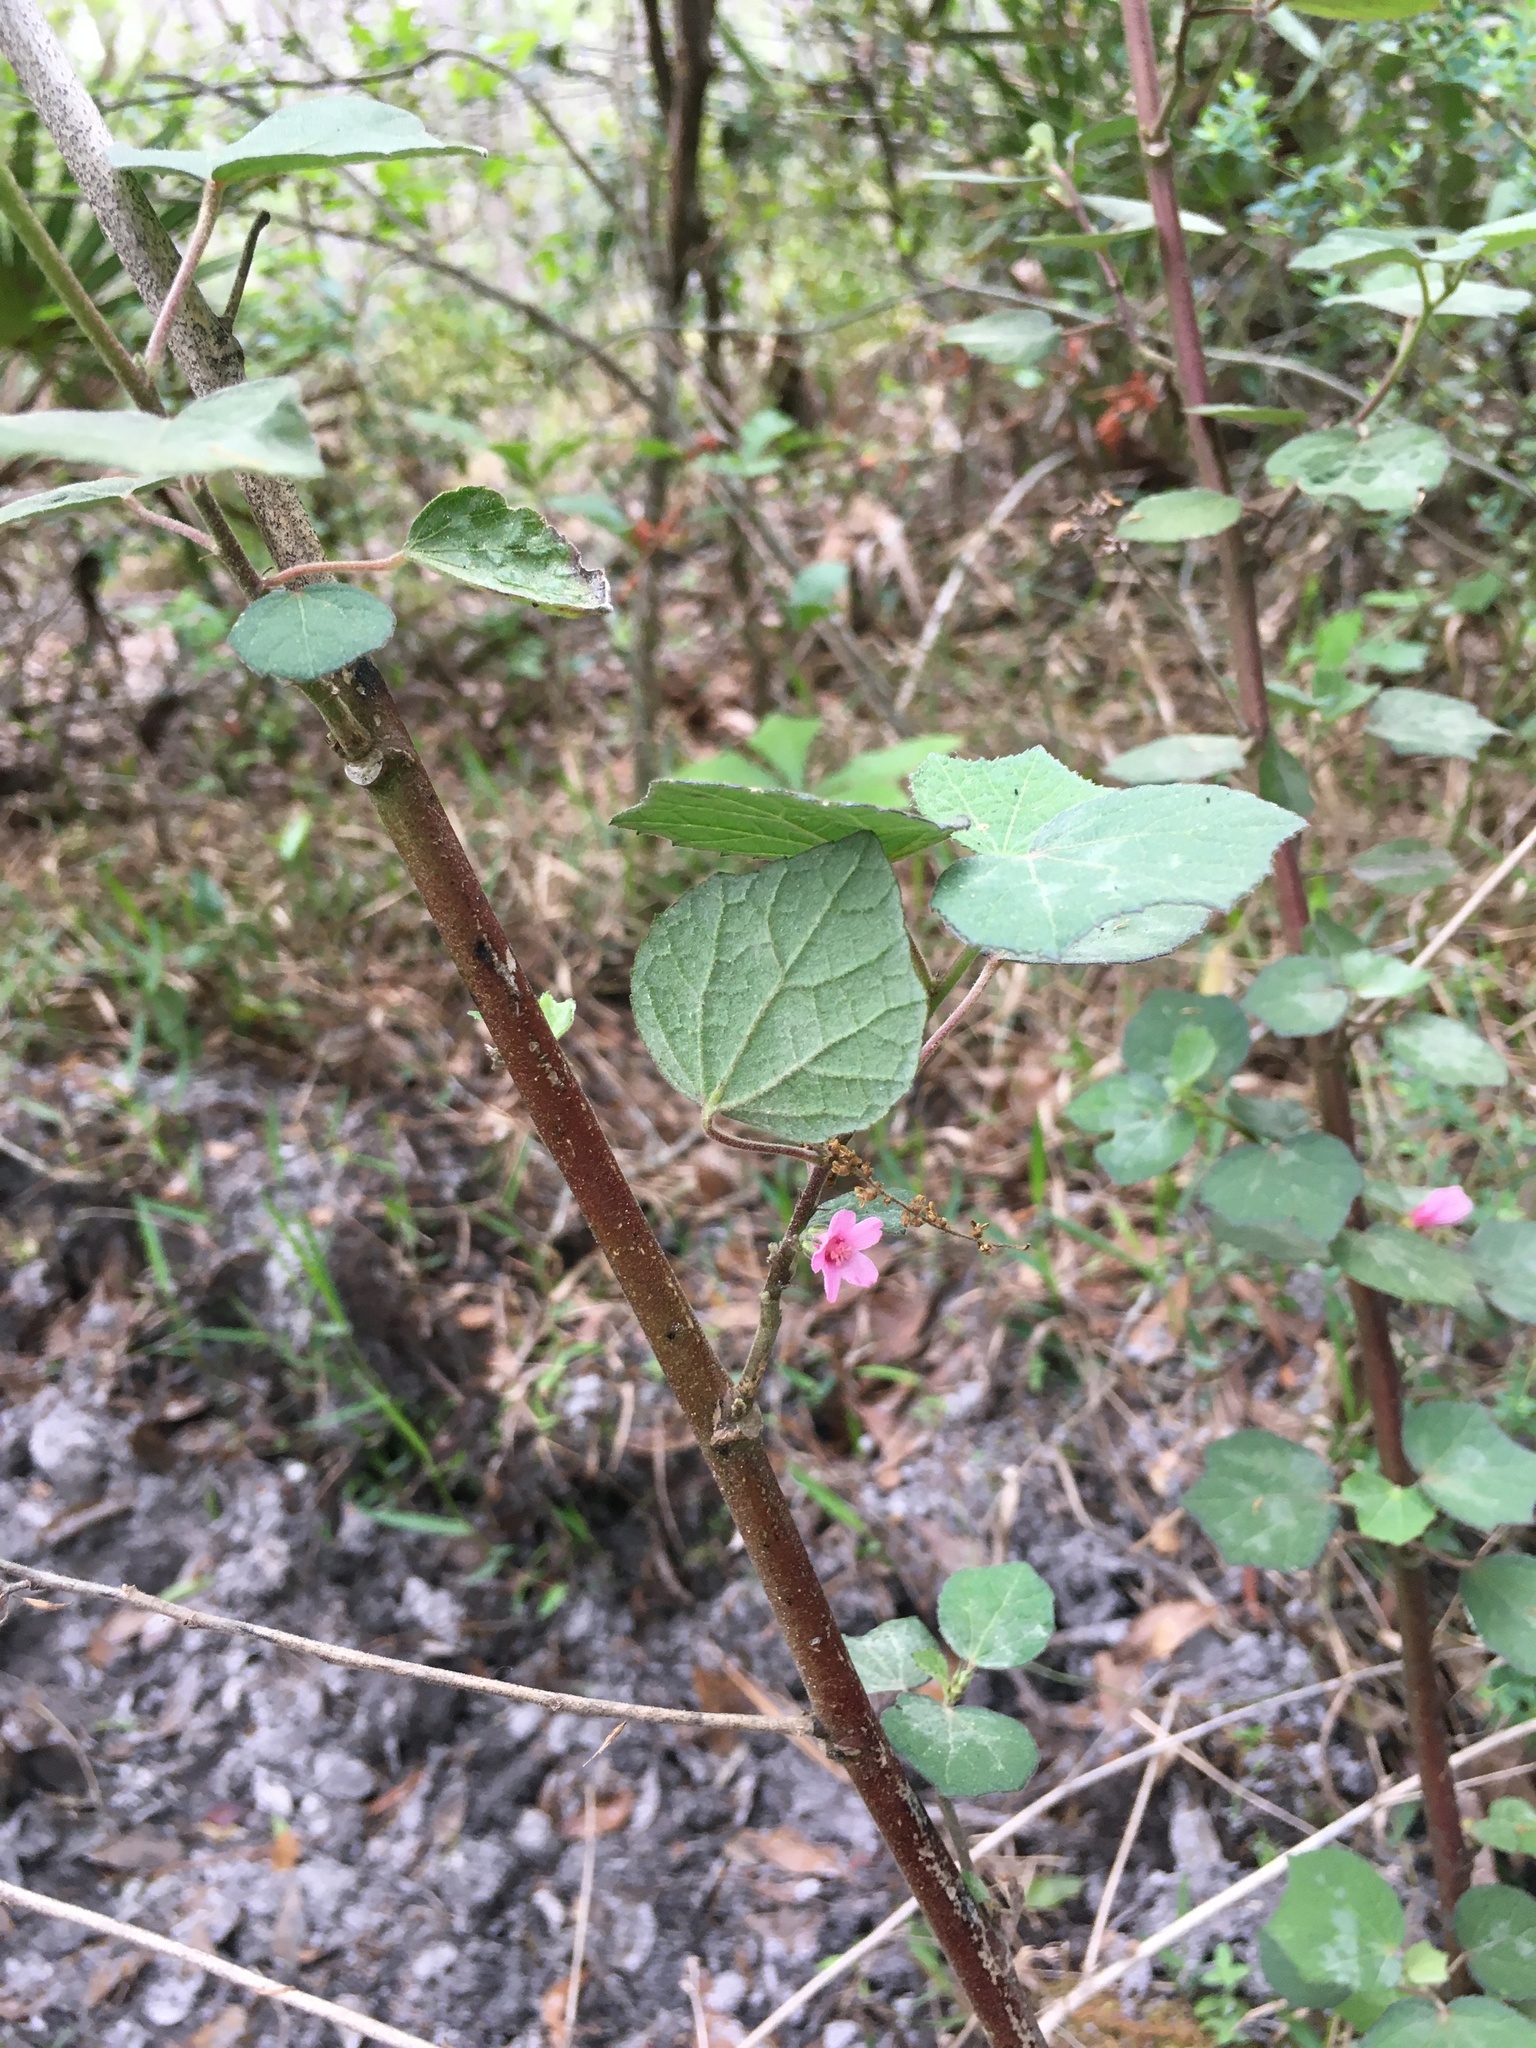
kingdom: Plantae
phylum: Tracheophyta
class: Magnoliopsida
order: Malvales
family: Malvaceae
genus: Urena
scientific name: Urena lobata
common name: Caesarweed
